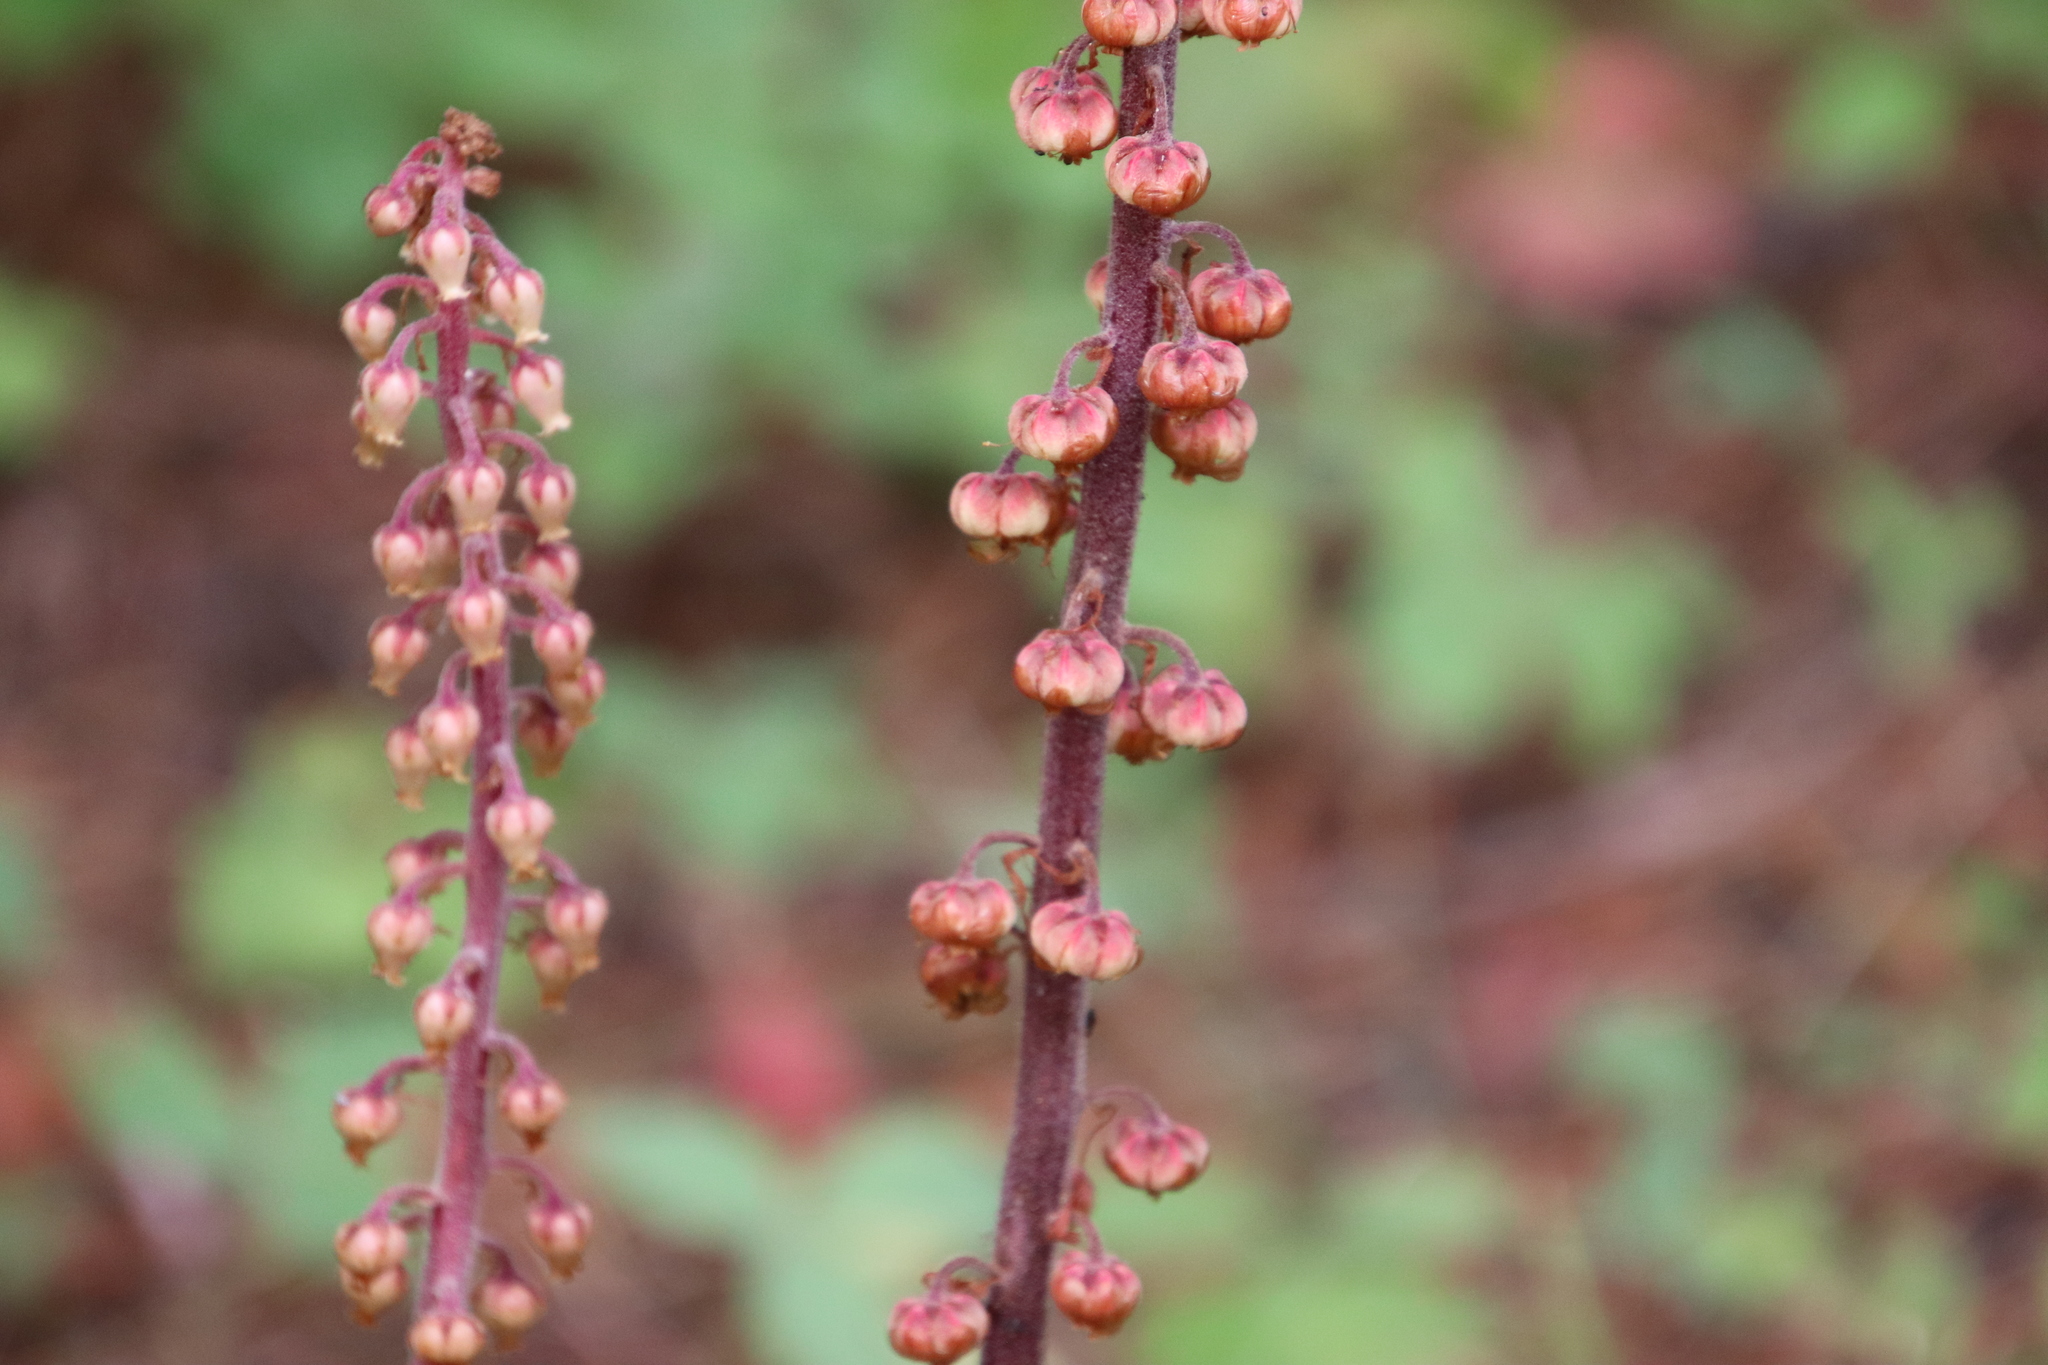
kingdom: Plantae
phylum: Tracheophyta
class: Magnoliopsida
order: Ericales
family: Ericaceae
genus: Pterospora
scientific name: Pterospora andromedea
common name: Giant bird's-nest
